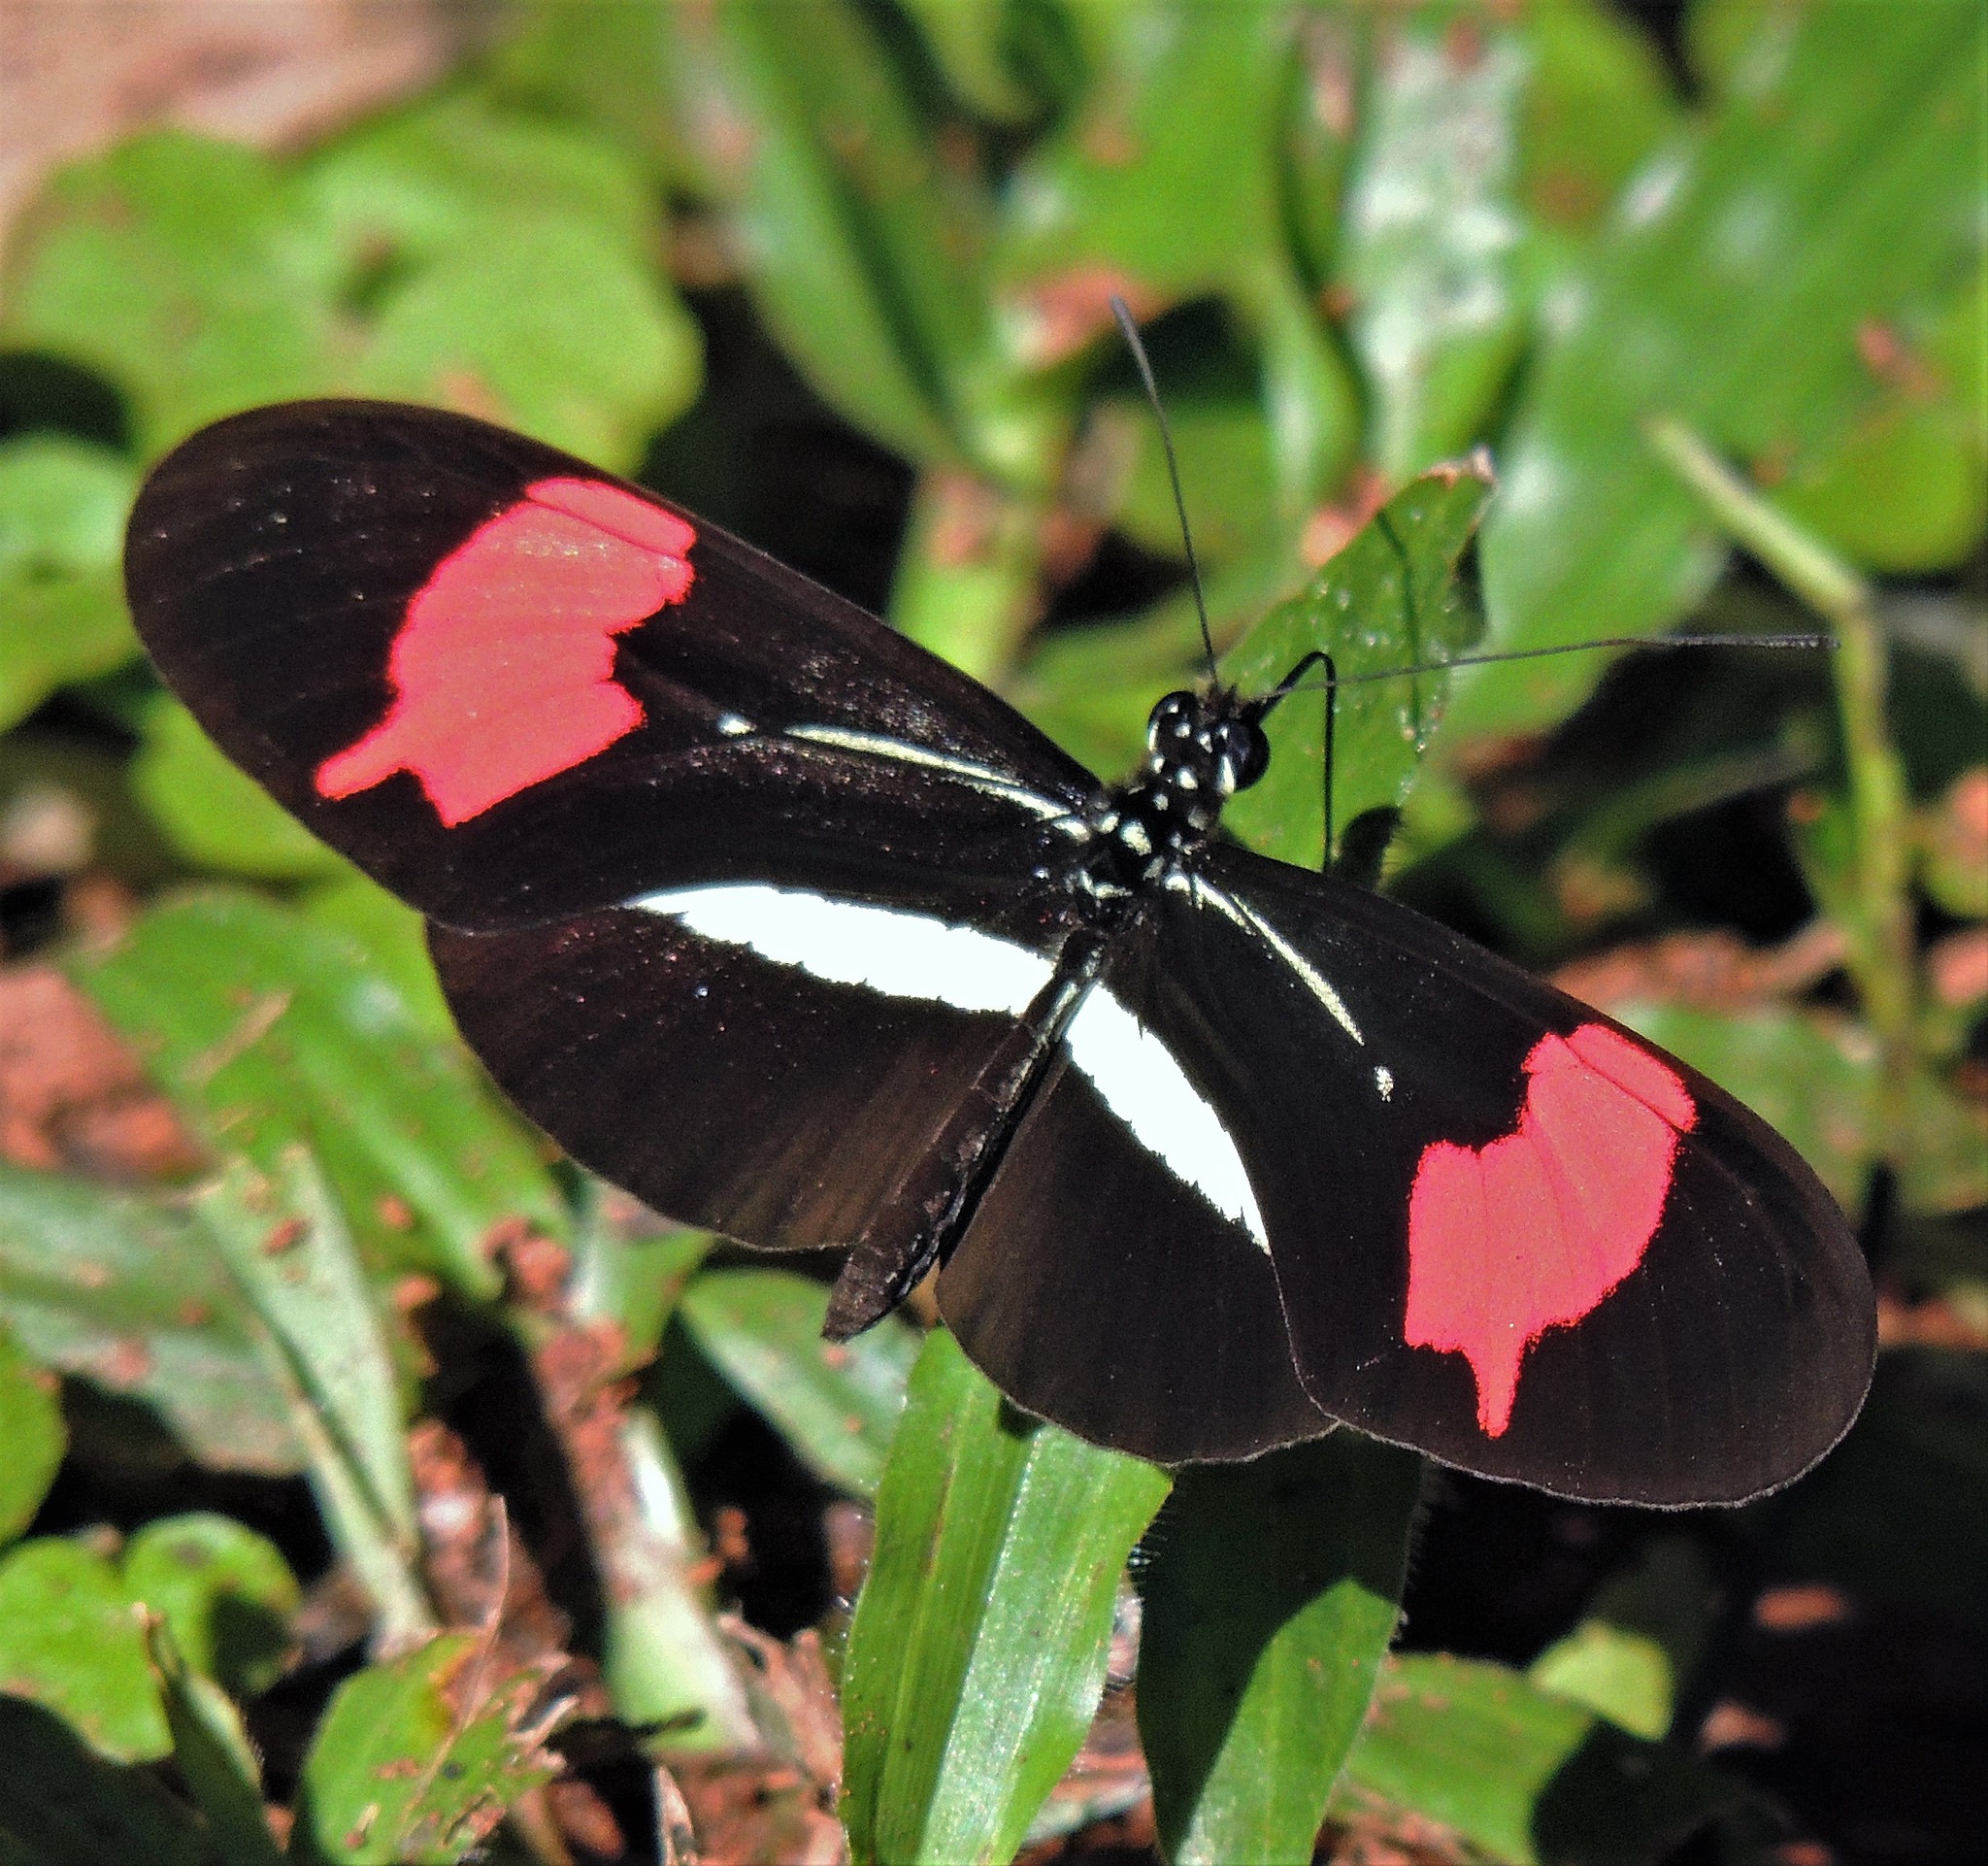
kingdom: Animalia
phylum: Arthropoda
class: Insecta
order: Lepidoptera
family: Nymphalidae
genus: Heliconius
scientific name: Heliconius erato
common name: Common patch longwing
